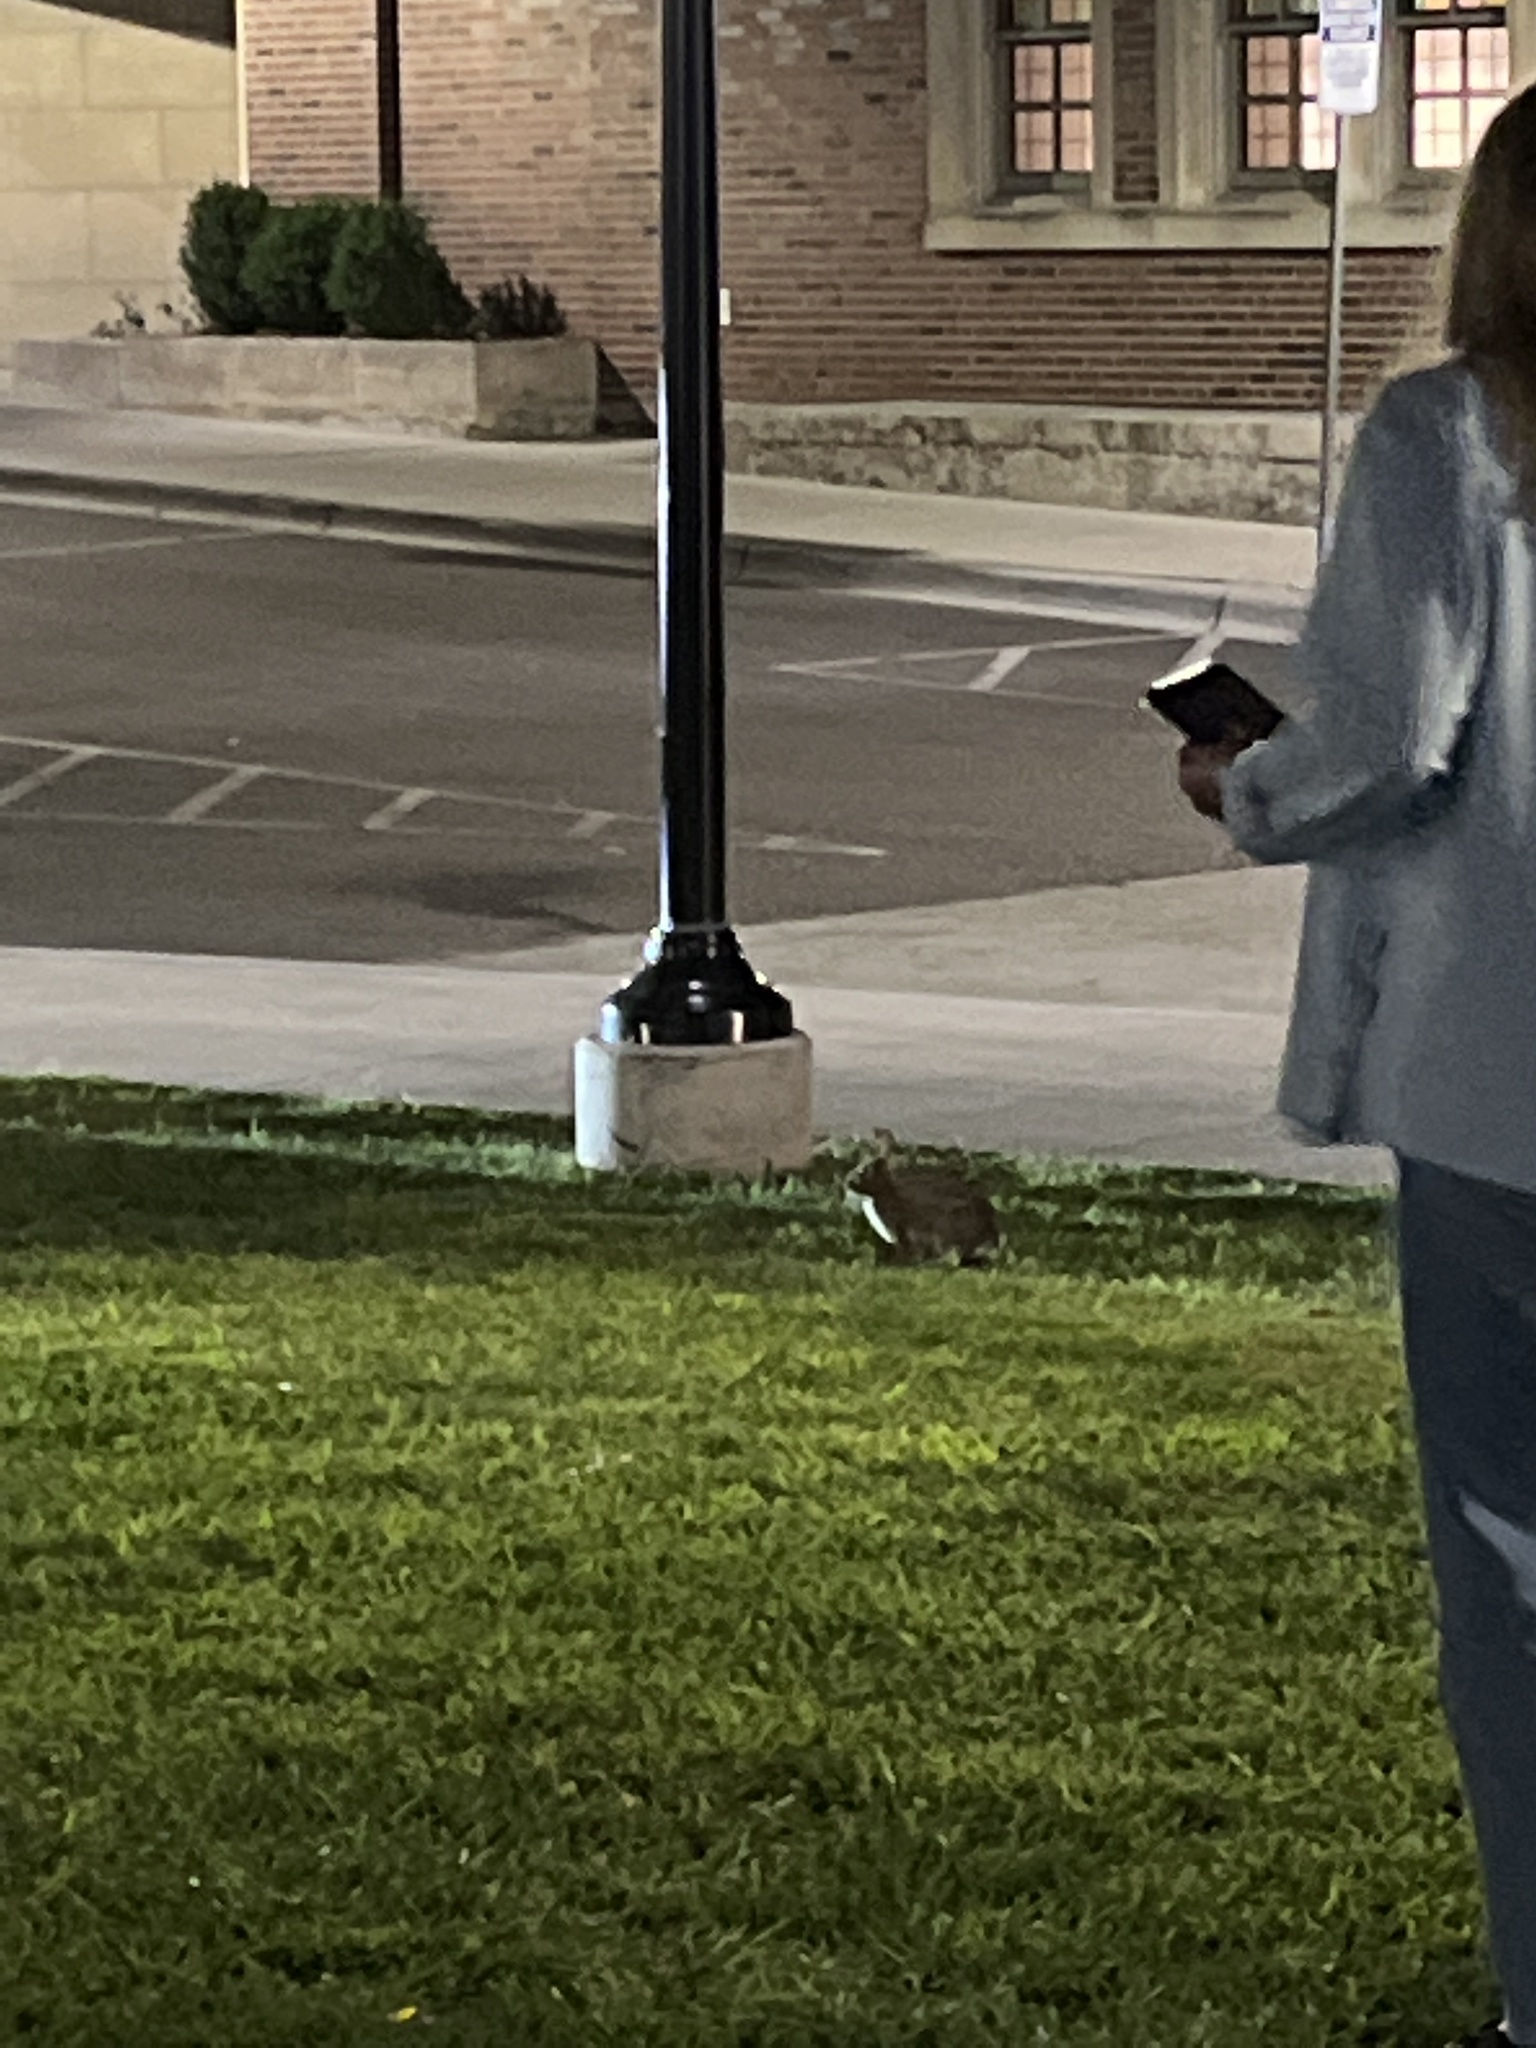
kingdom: Animalia
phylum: Chordata
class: Mammalia
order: Lagomorpha
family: Leporidae
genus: Sylvilagus
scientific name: Sylvilagus floridanus
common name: Eastern cottontail
